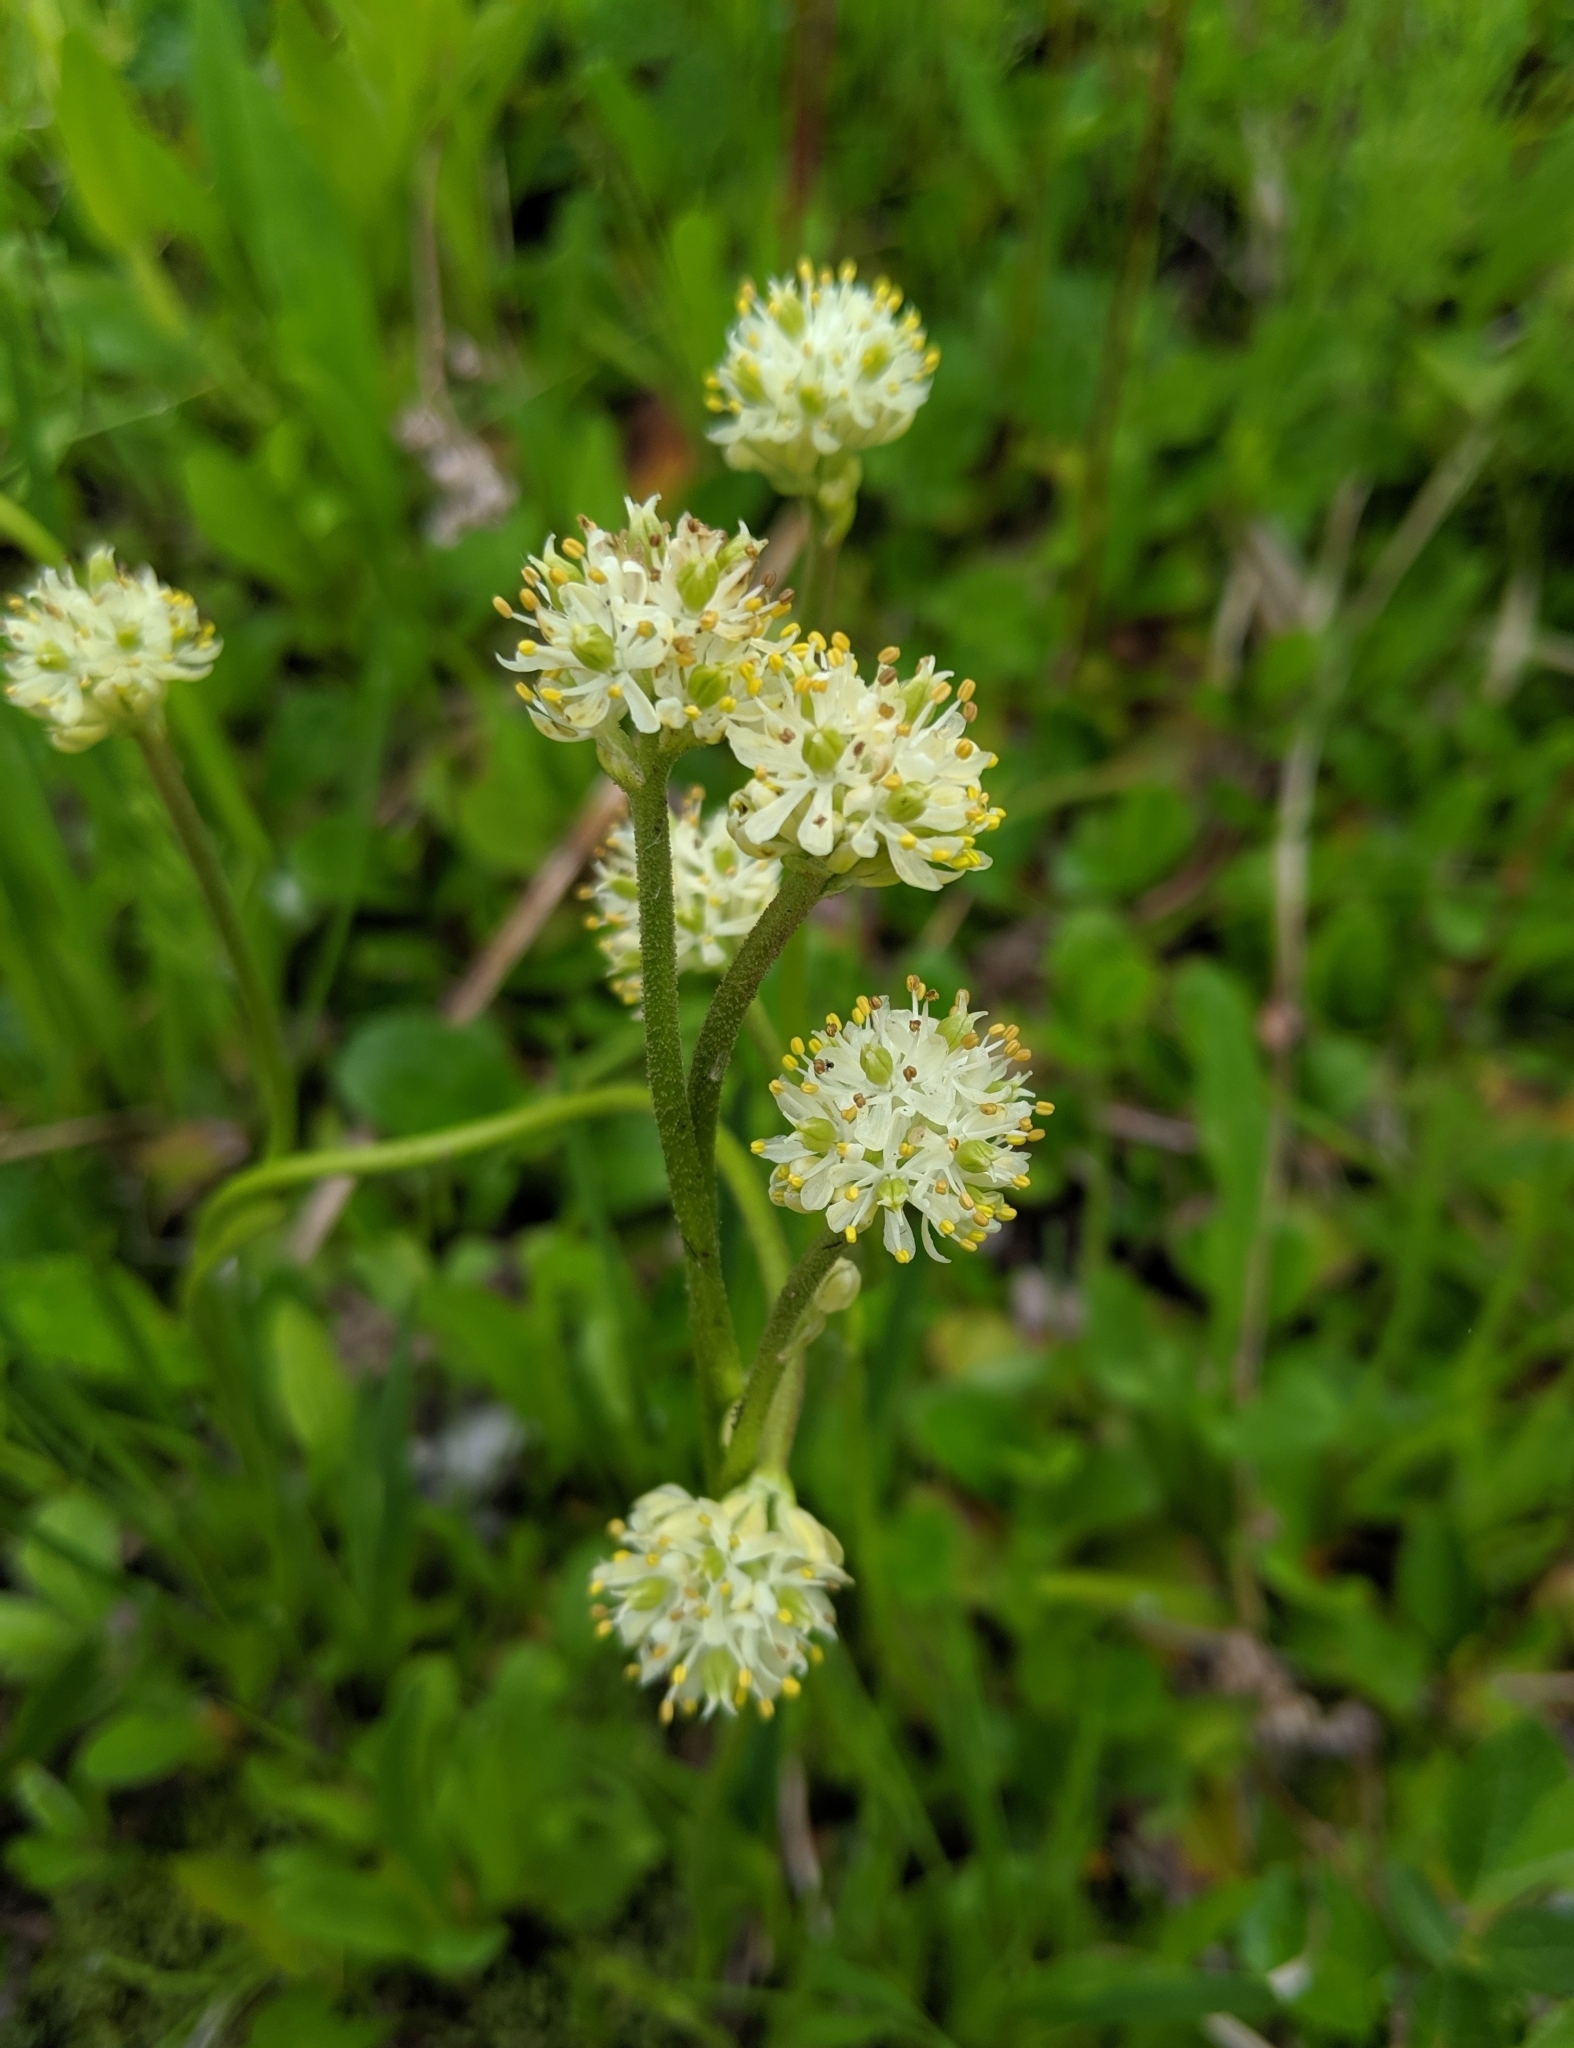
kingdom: Plantae
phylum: Tracheophyta
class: Liliopsida
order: Alismatales
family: Tofieldiaceae
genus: Triantha
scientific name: Triantha glutinosa
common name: Glutinous tofieldia
